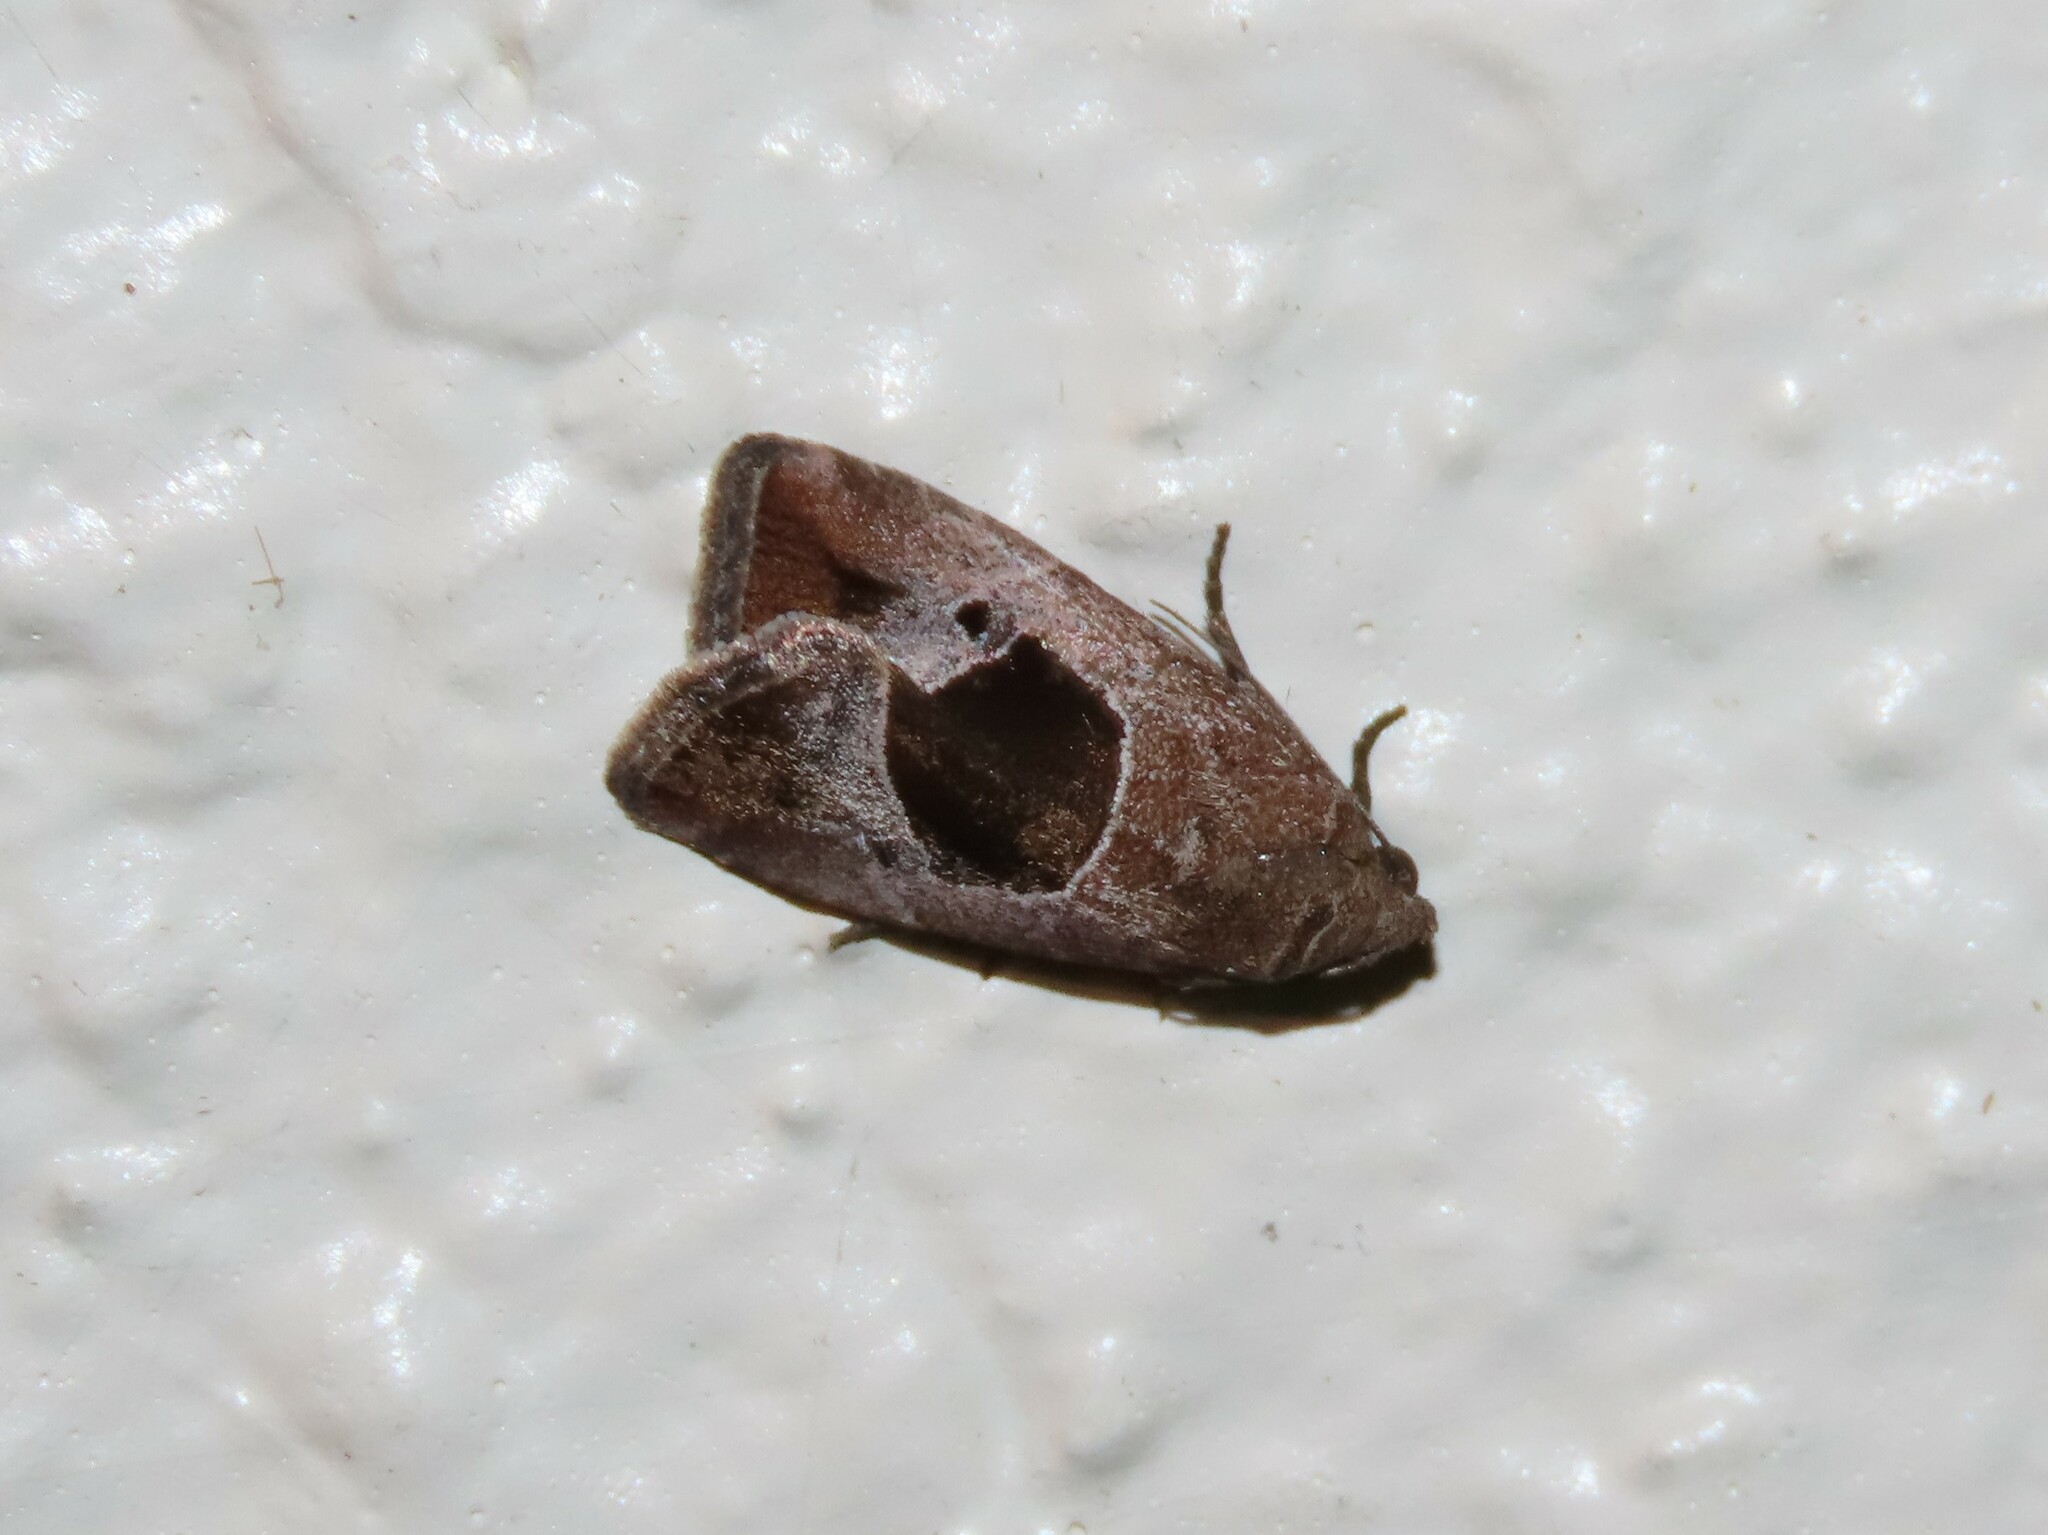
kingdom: Animalia
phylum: Arthropoda
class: Insecta
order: Lepidoptera
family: Noctuidae
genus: Elaphria
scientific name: Elaphria deltoides
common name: Cutworm moth
